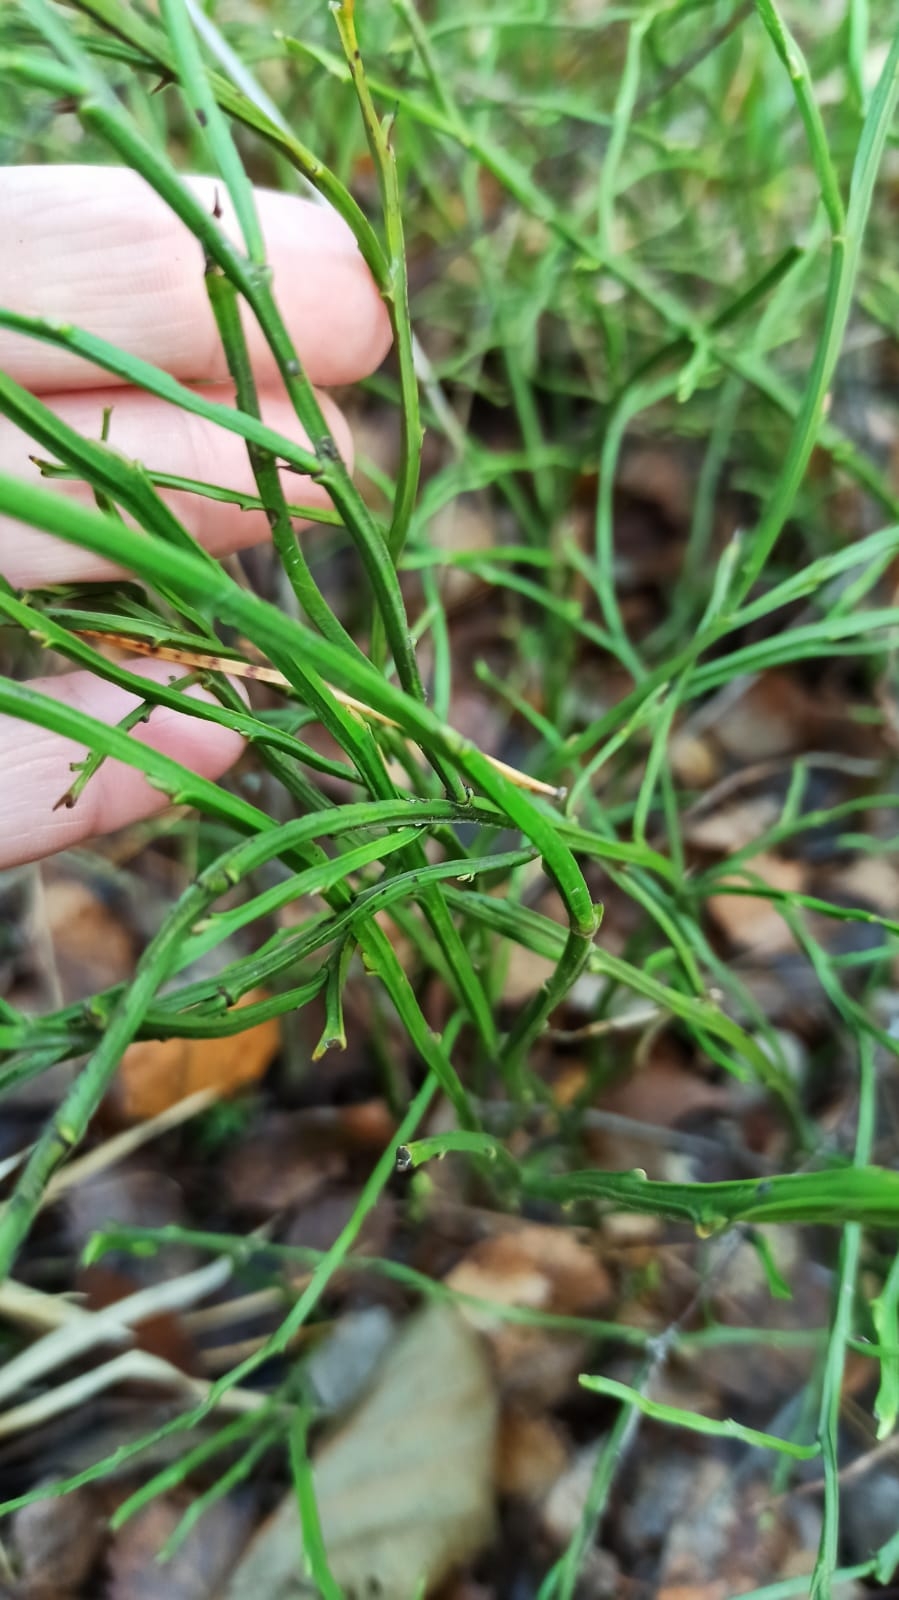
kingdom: Plantae
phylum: Tracheophyta
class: Magnoliopsida
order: Ericales
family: Ericaceae
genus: Vaccinium
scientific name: Vaccinium myrtillus
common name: Bilberry
